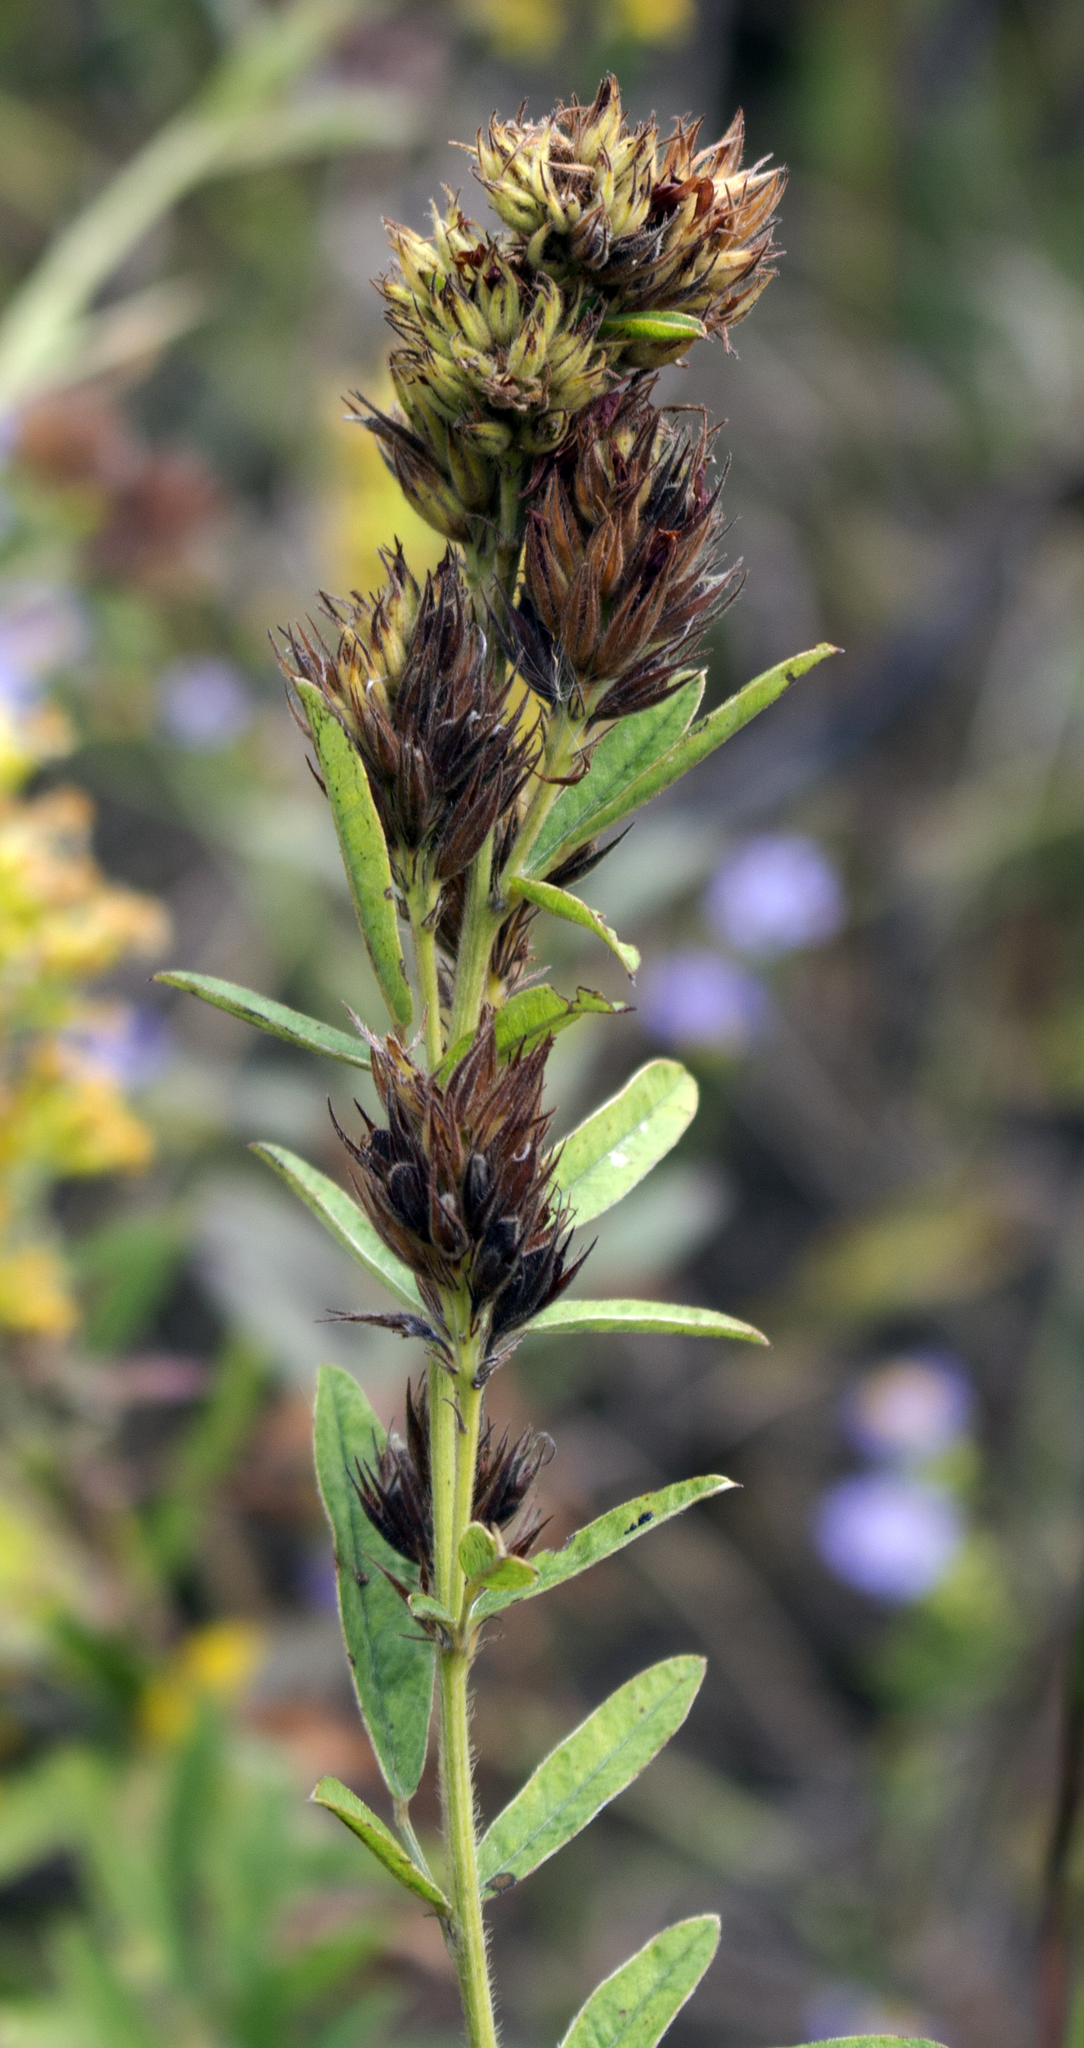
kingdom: Plantae
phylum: Tracheophyta
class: Magnoliopsida
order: Fabales
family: Fabaceae
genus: Lespedeza
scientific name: Lespedeza capitata
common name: Dusty clover
